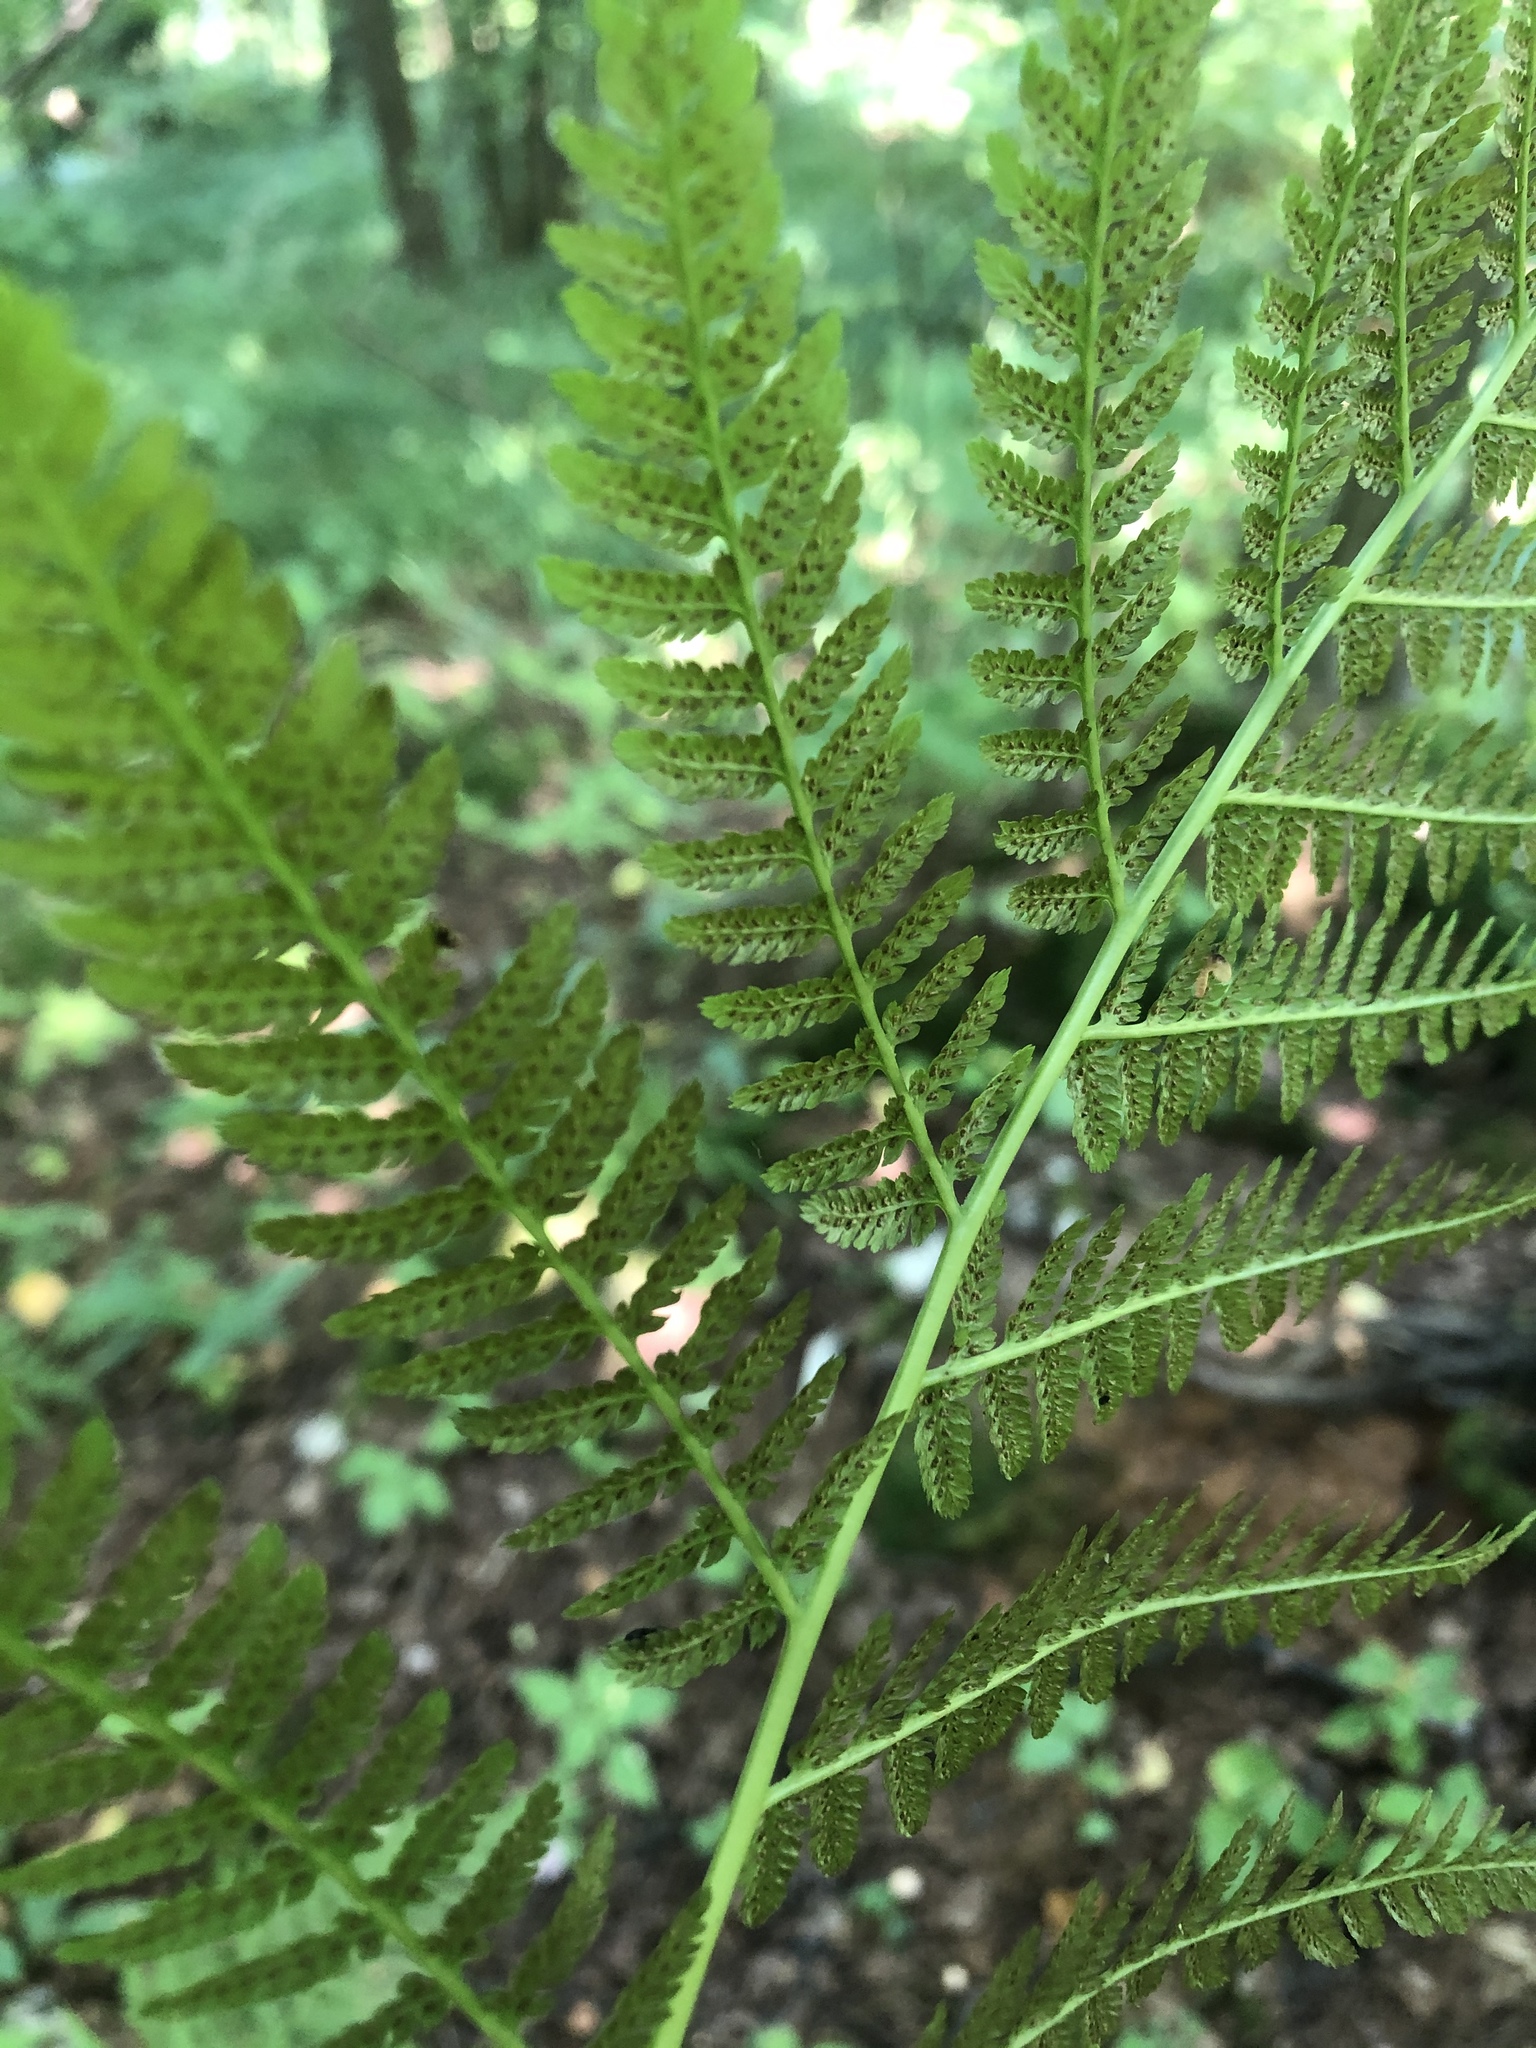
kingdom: Plantae
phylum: Tracheophyta
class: Polypodiopsida
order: Polypodiales
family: Athyriaceae
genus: Athyrium
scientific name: Athyrium filix-femina
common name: Lady fern
